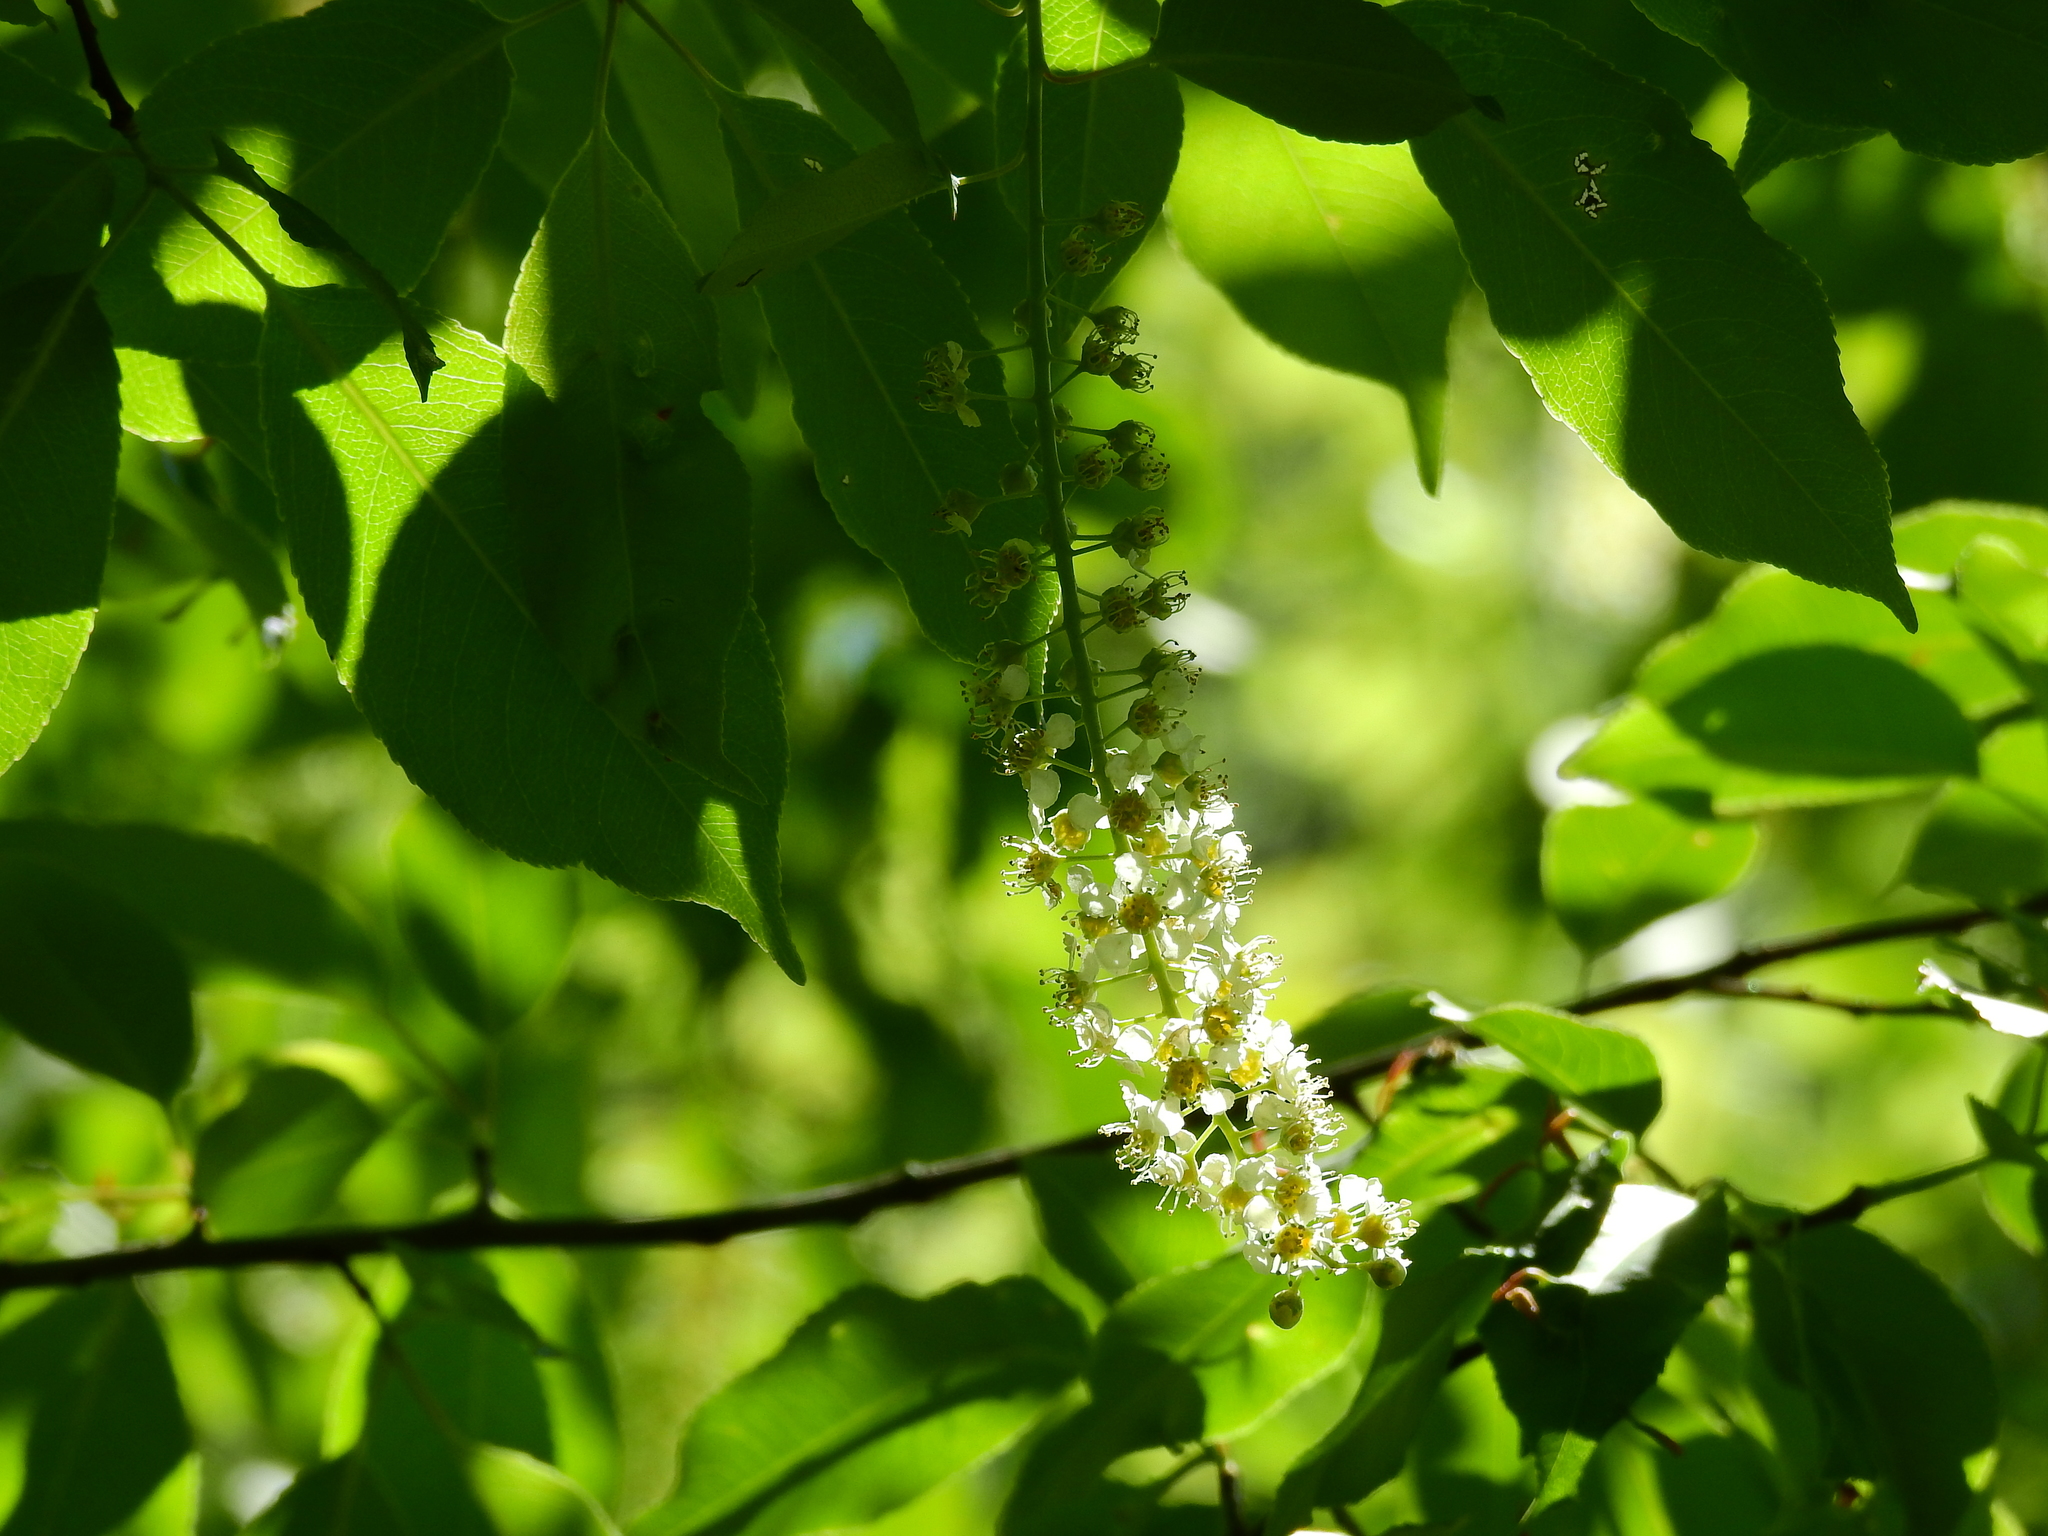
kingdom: Plantae
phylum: Tracheophyta
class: Magnoliopsida
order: Rosales
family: Rosaceae
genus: Prunus
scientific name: Prunus serotina
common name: Black cherry
